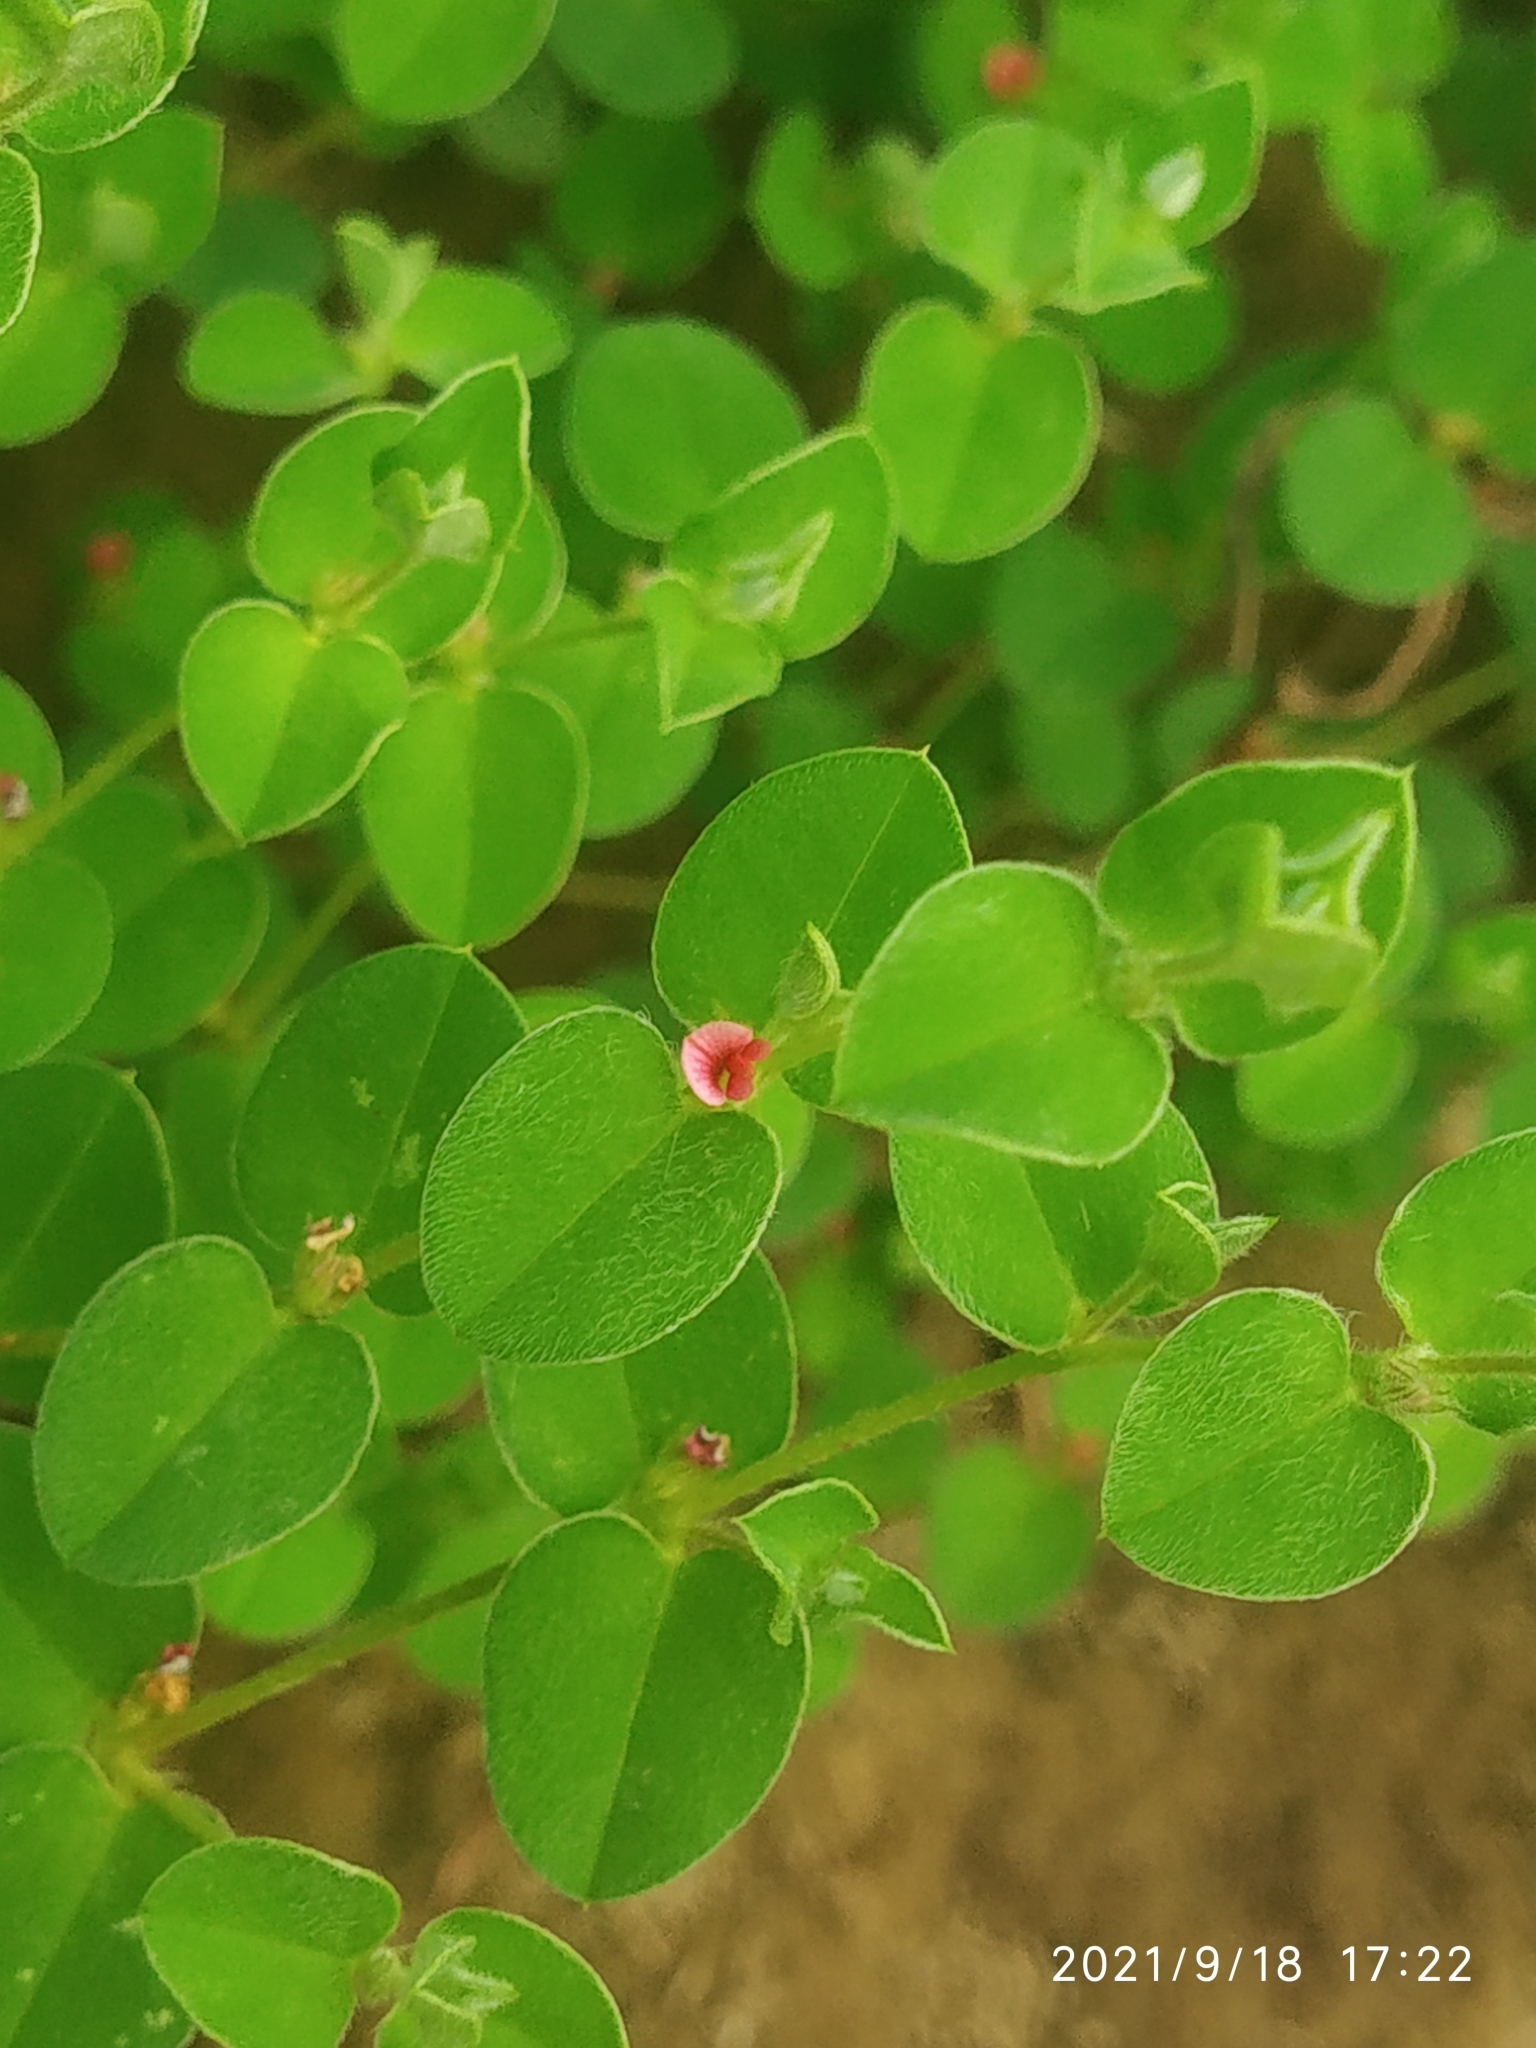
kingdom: Plantae
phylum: Tracheophyta
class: Magnoliopsida
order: Fabales
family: Fabaceae
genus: Indigofera
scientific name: Indigofera cordifolia
